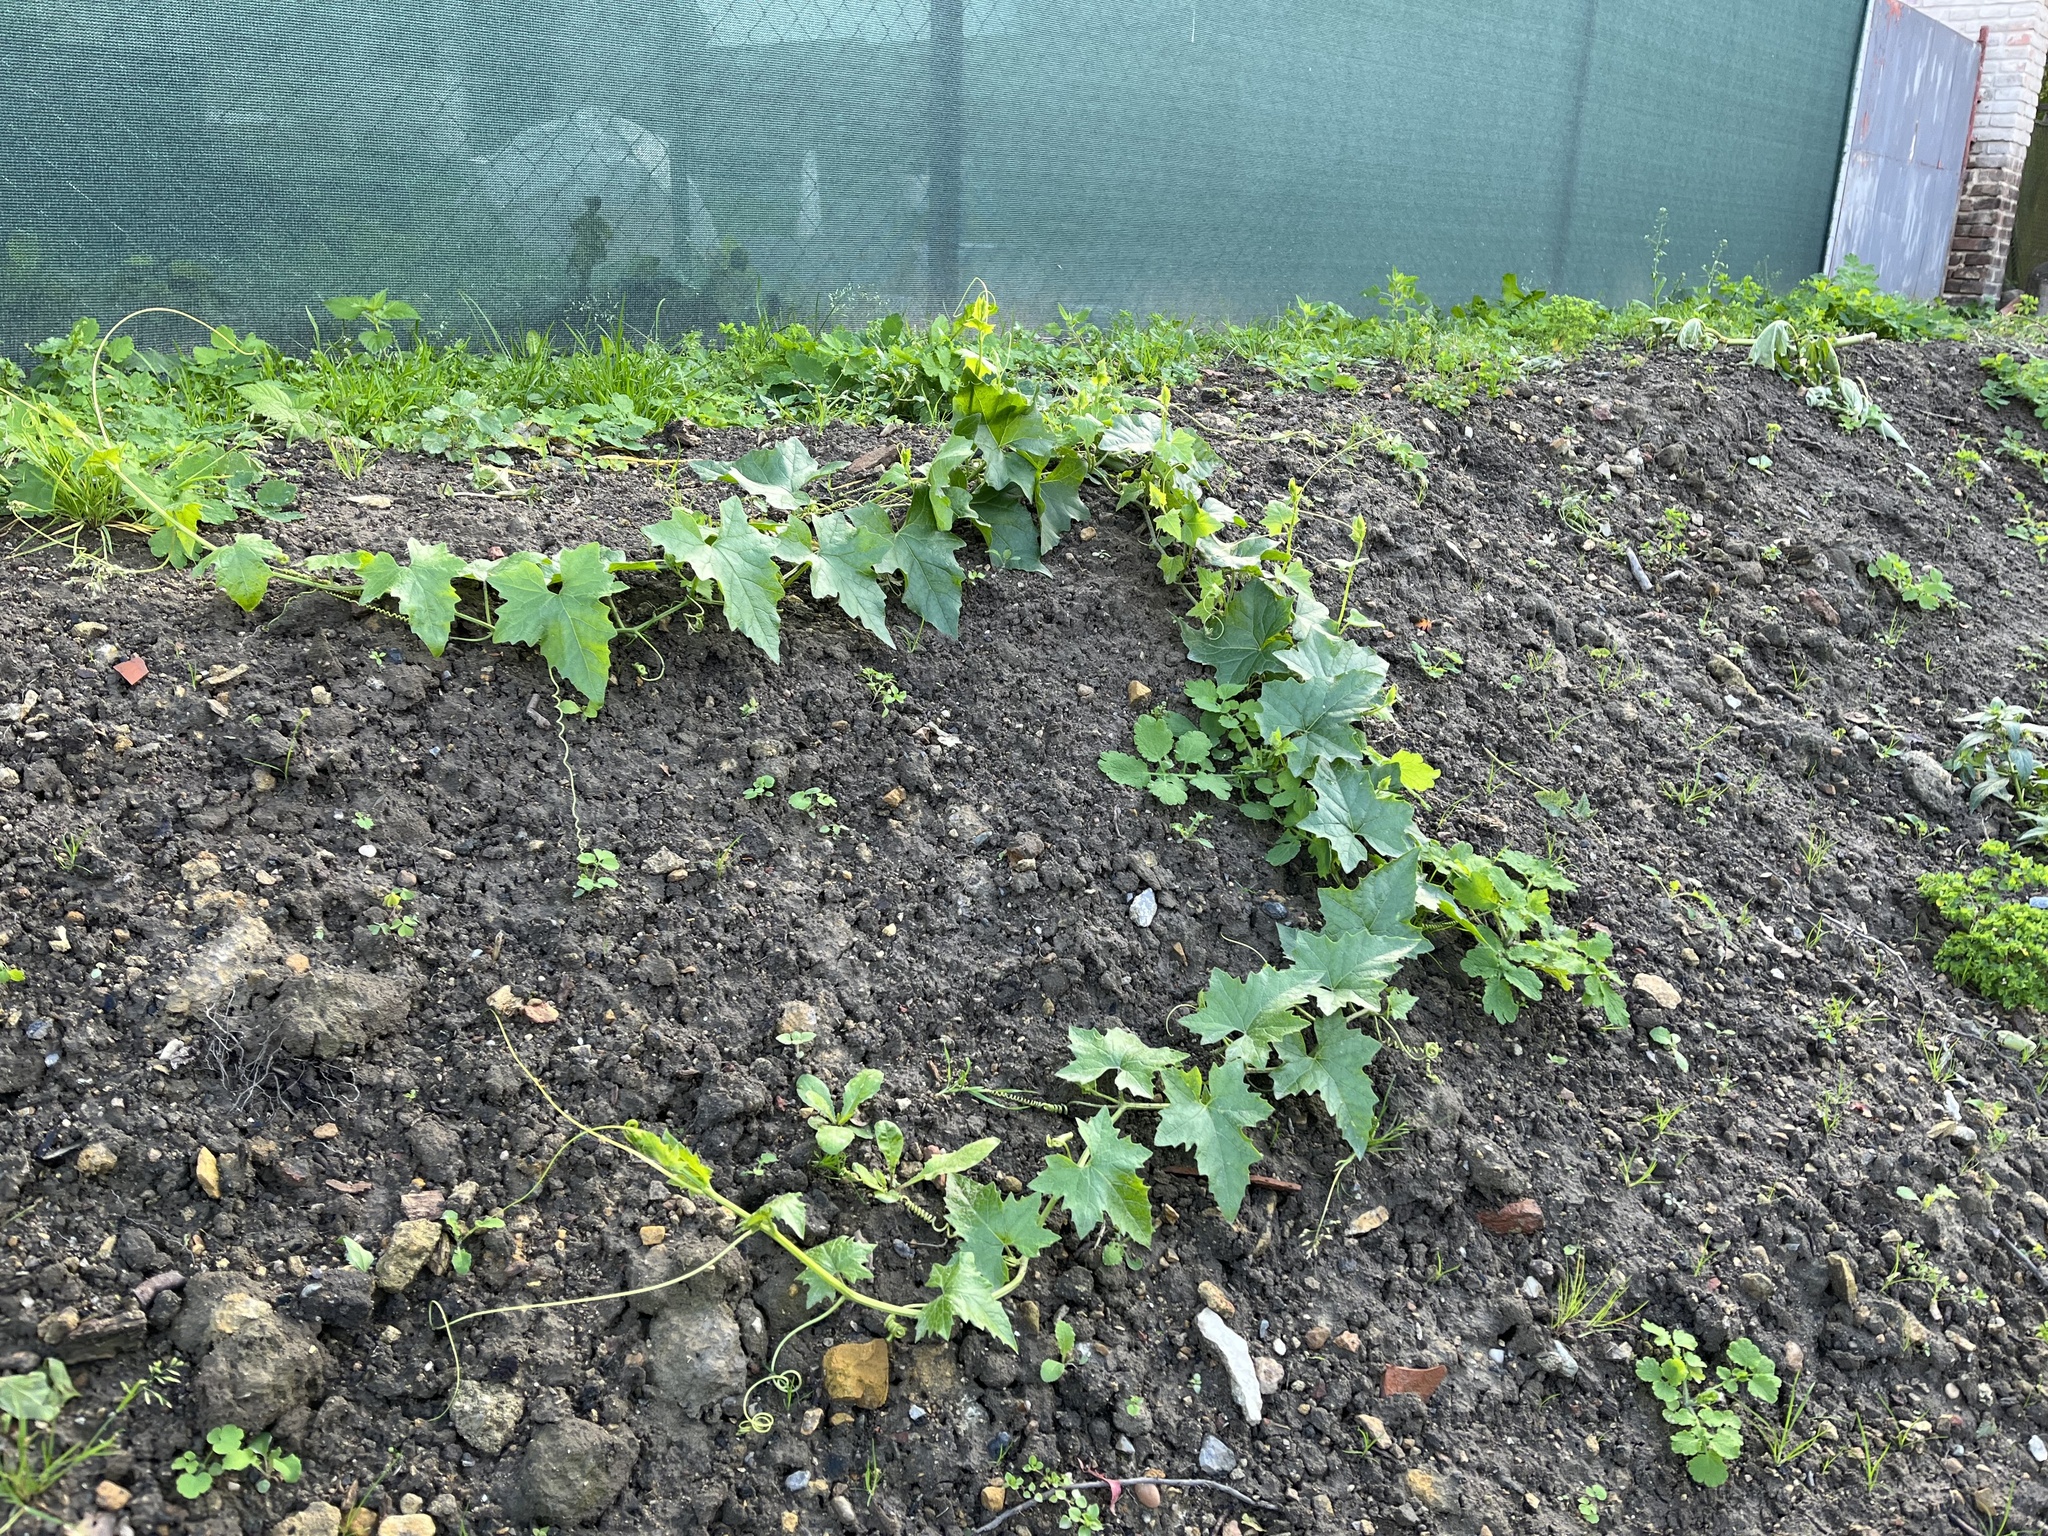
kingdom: Plantae
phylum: Tracheophyta
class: Magnoliopsida
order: Cucurbitales
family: Cucurbitaceae
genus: Bryonia
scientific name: Bryonia alba
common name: White bryony
